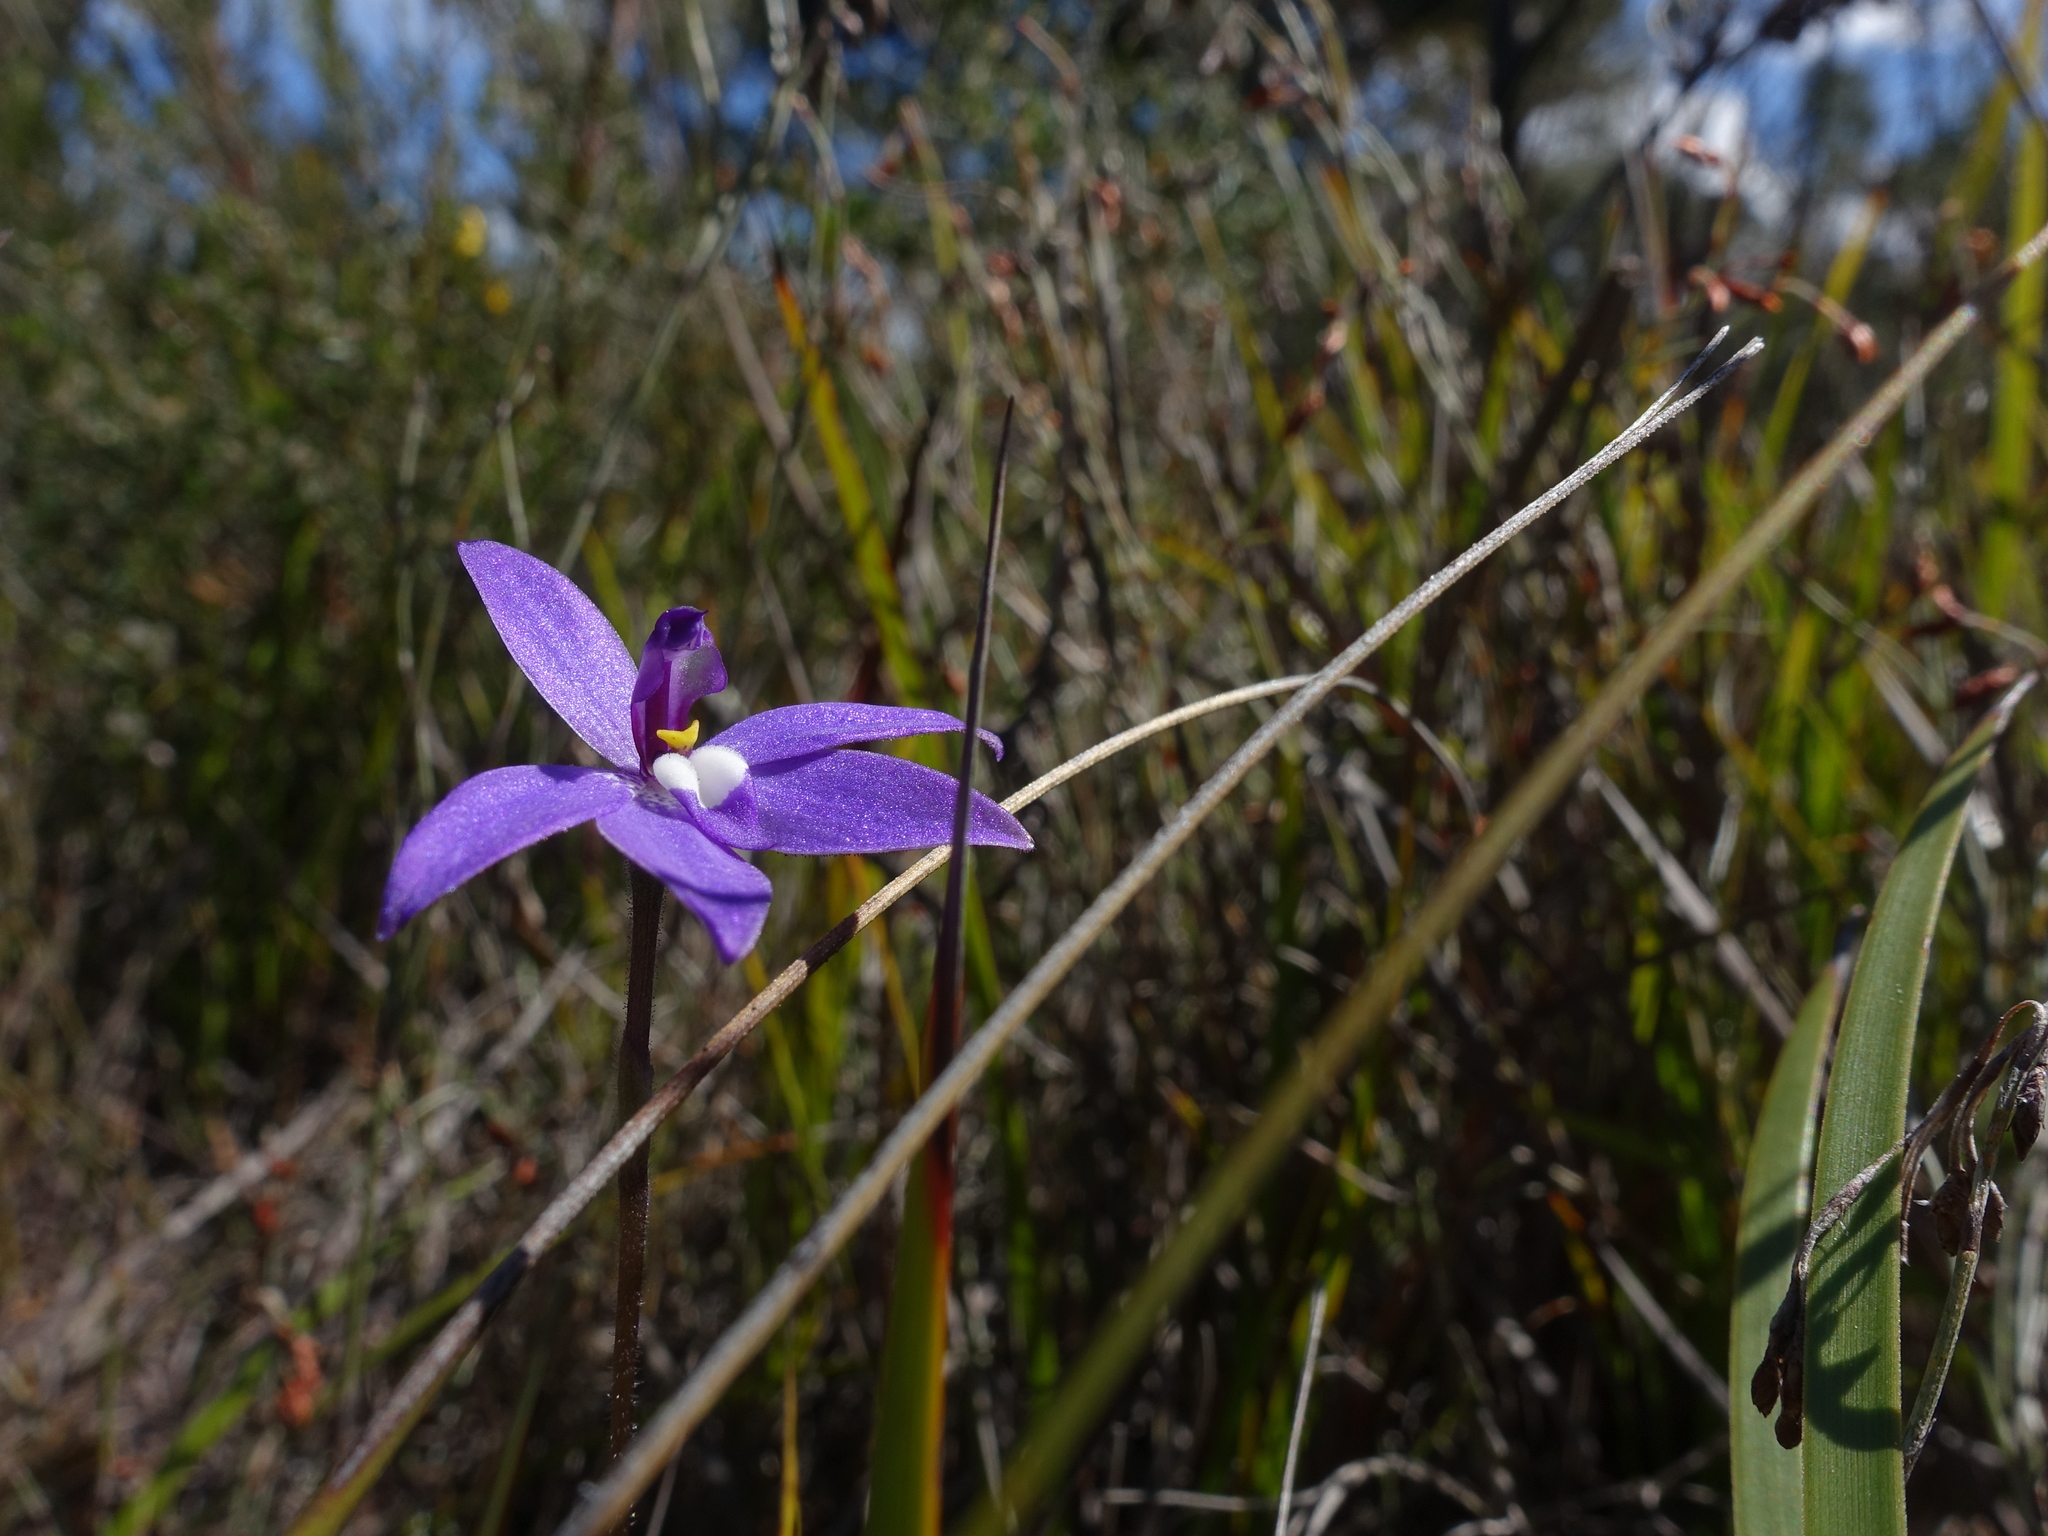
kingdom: Plantae
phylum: Tracheophyta
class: Liliopsida
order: Asparagales
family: Orchidaceae
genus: Caladenia
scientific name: Caladenia major
